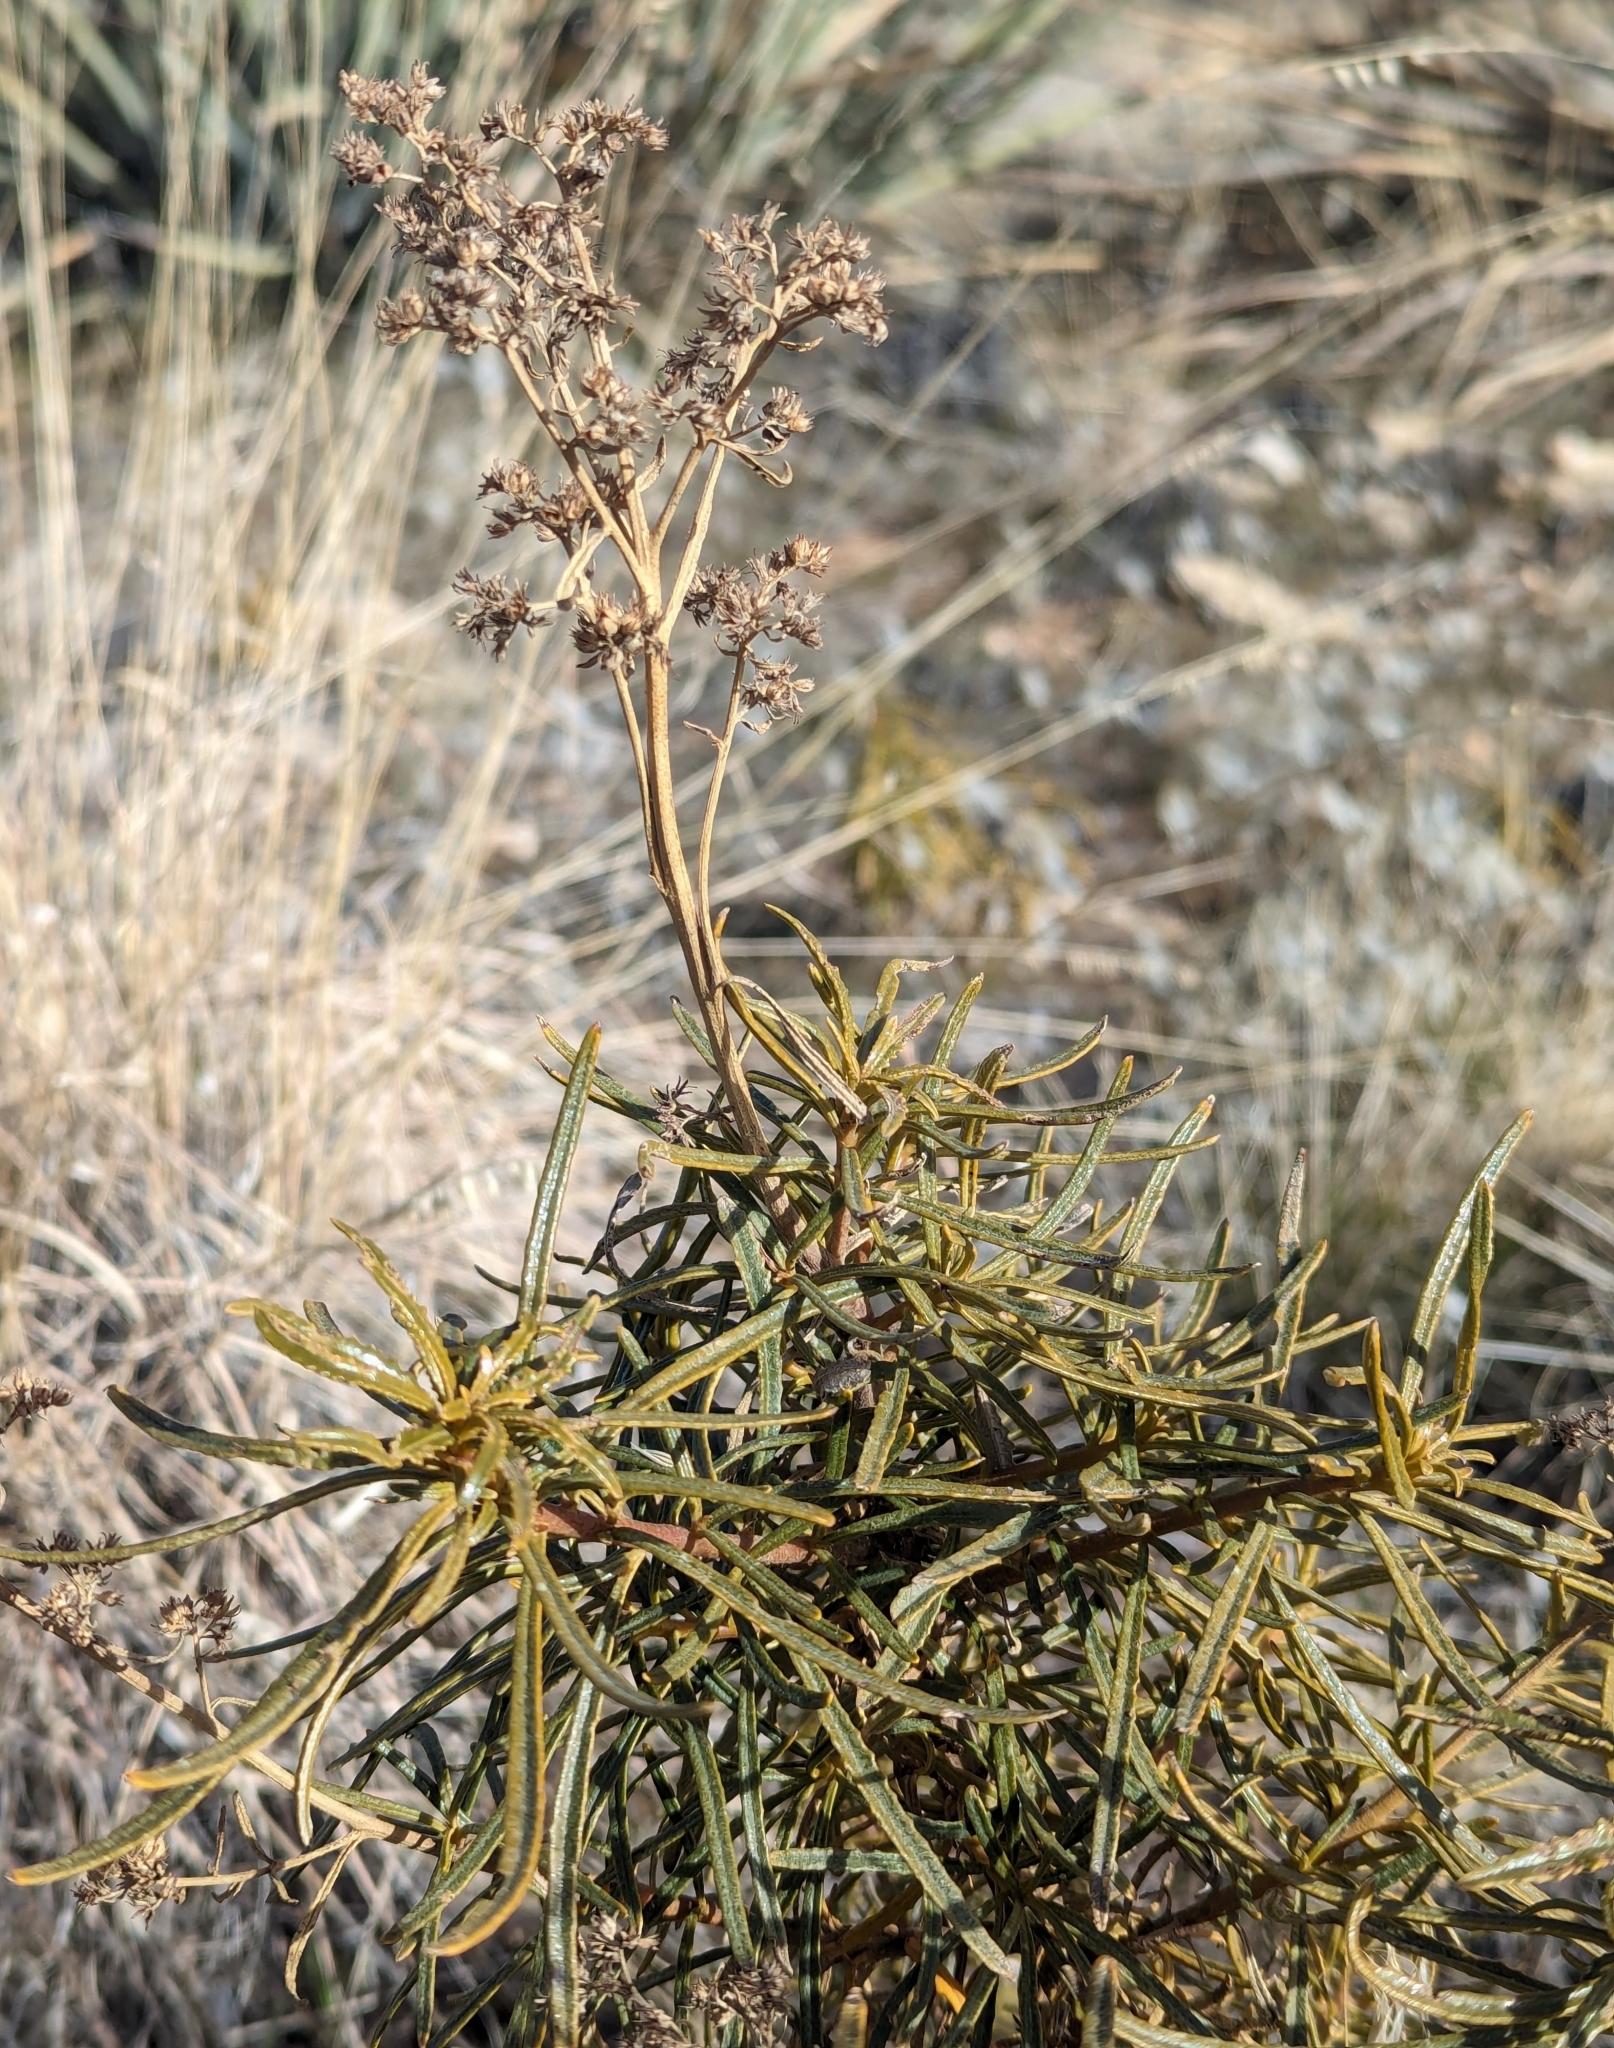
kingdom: Plantae
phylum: Tracheophyta
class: Magnoliopsida
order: Boraginales
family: Namaceae
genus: Eriodictyon
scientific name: Eriodictyon angustifolium
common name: Narrow-leaf yerba santa
